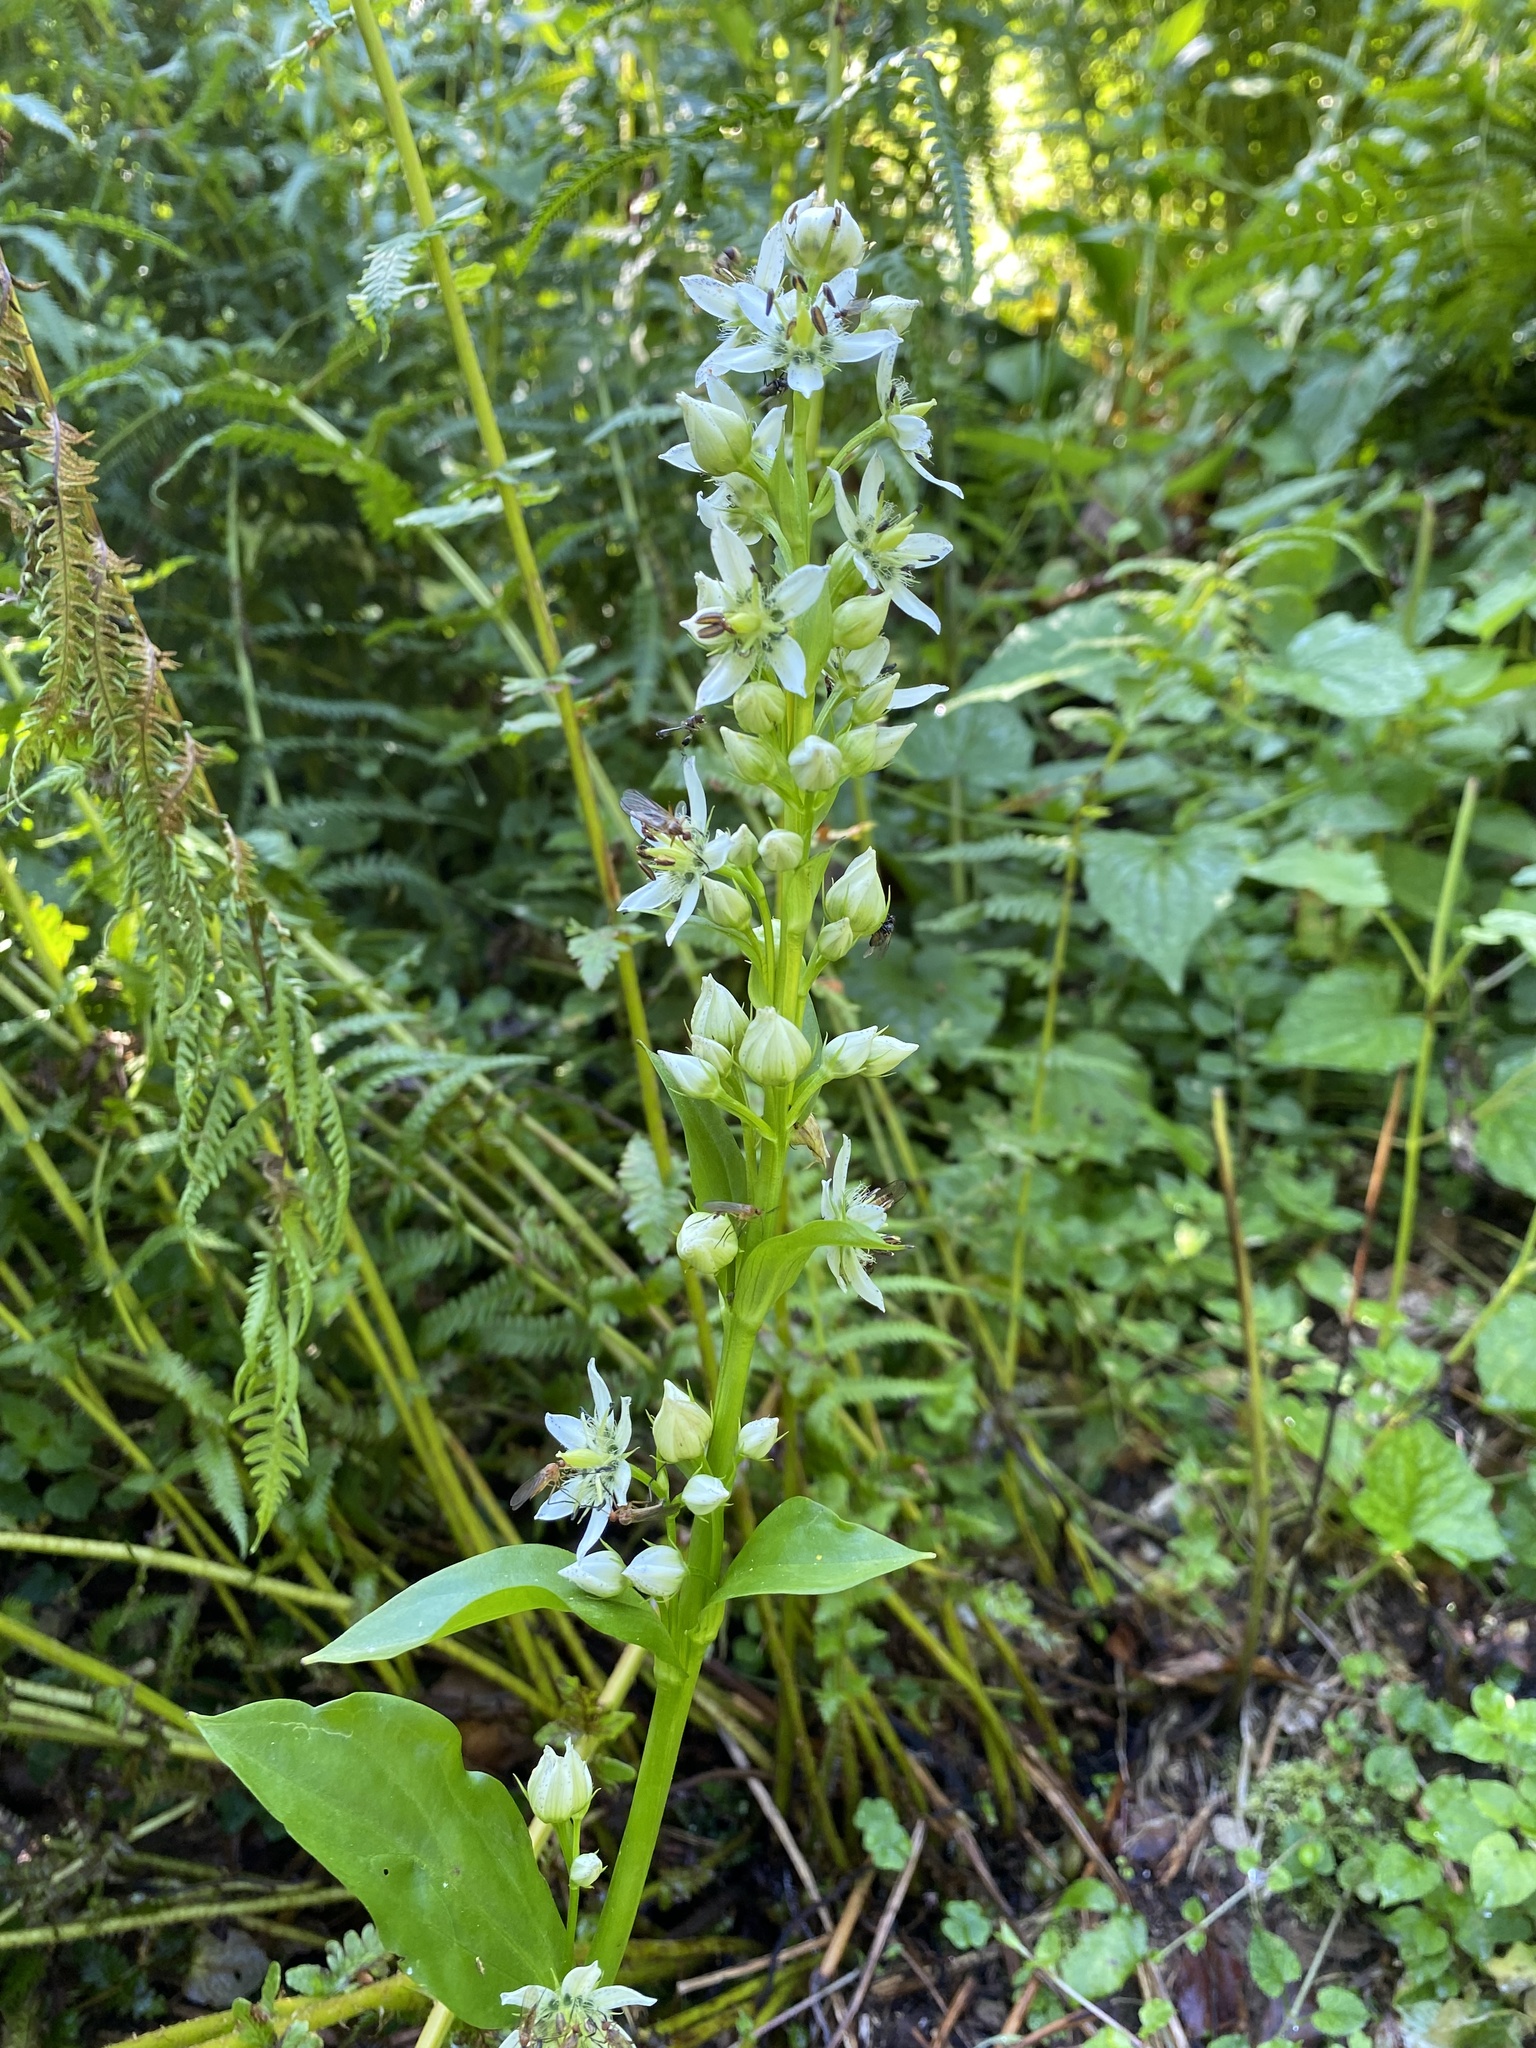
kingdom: Plantae
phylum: Tracheophyta
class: Magnoliopsida
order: Gentianales
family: Gentianaceae
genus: Swertia
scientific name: Swertia iberica
